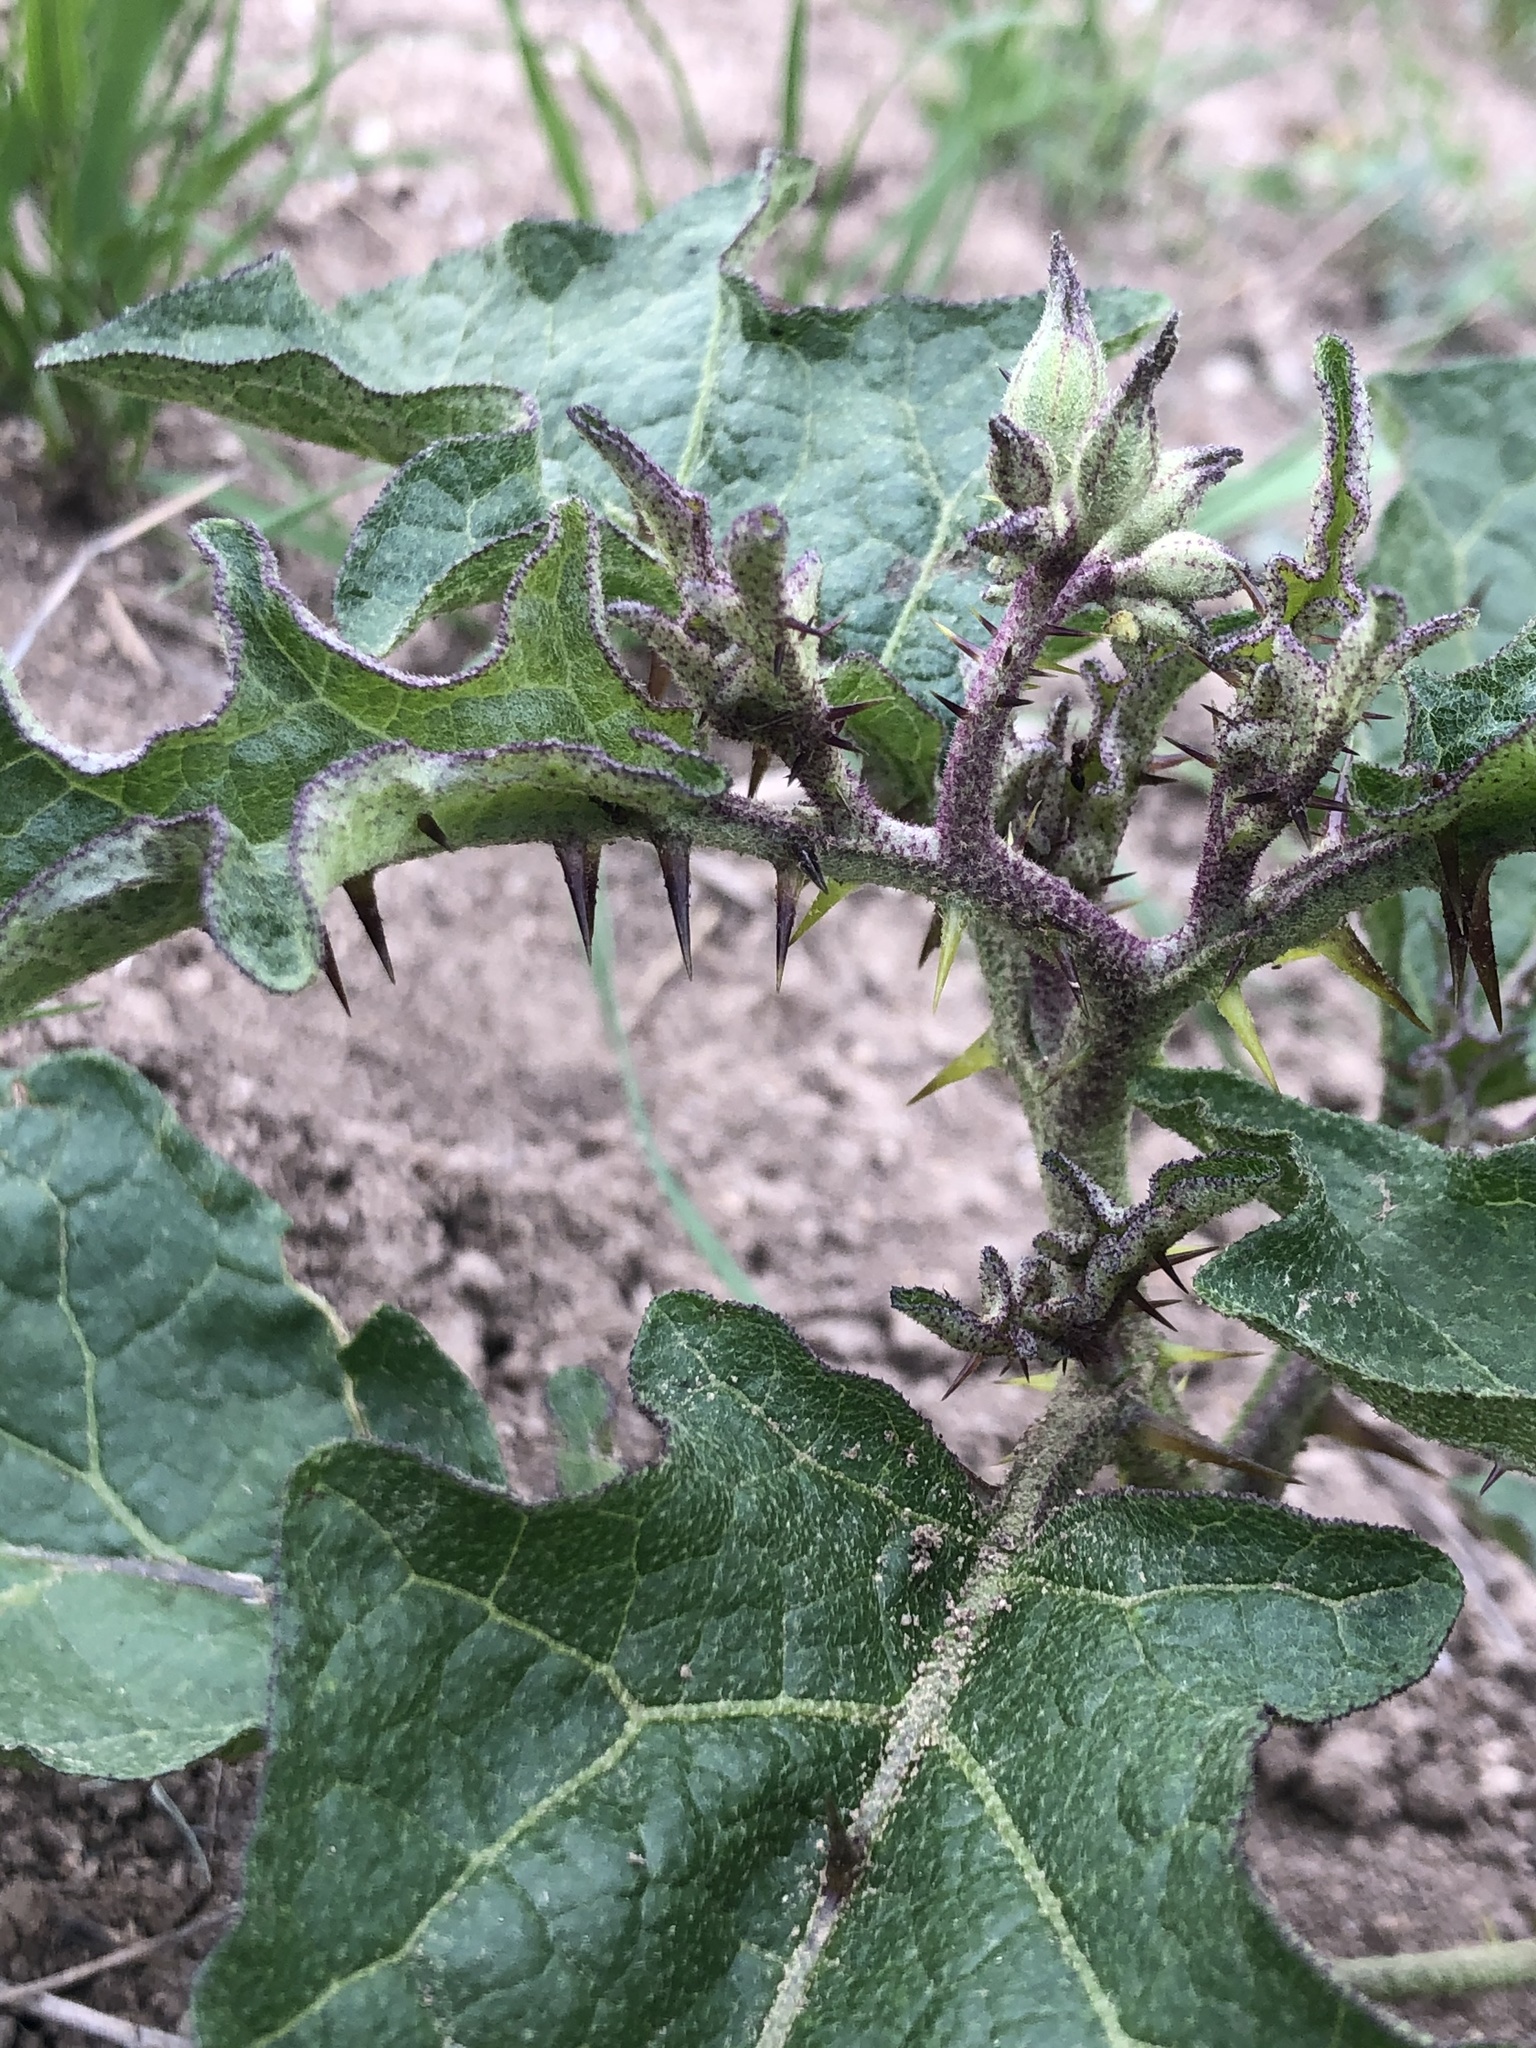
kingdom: Plantae
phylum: Tracheophyta
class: Magnoliopsida
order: Solanales
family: Solanaceae
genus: Solanum
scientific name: Solanum dimidiatum
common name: Carolina horse-nettle
